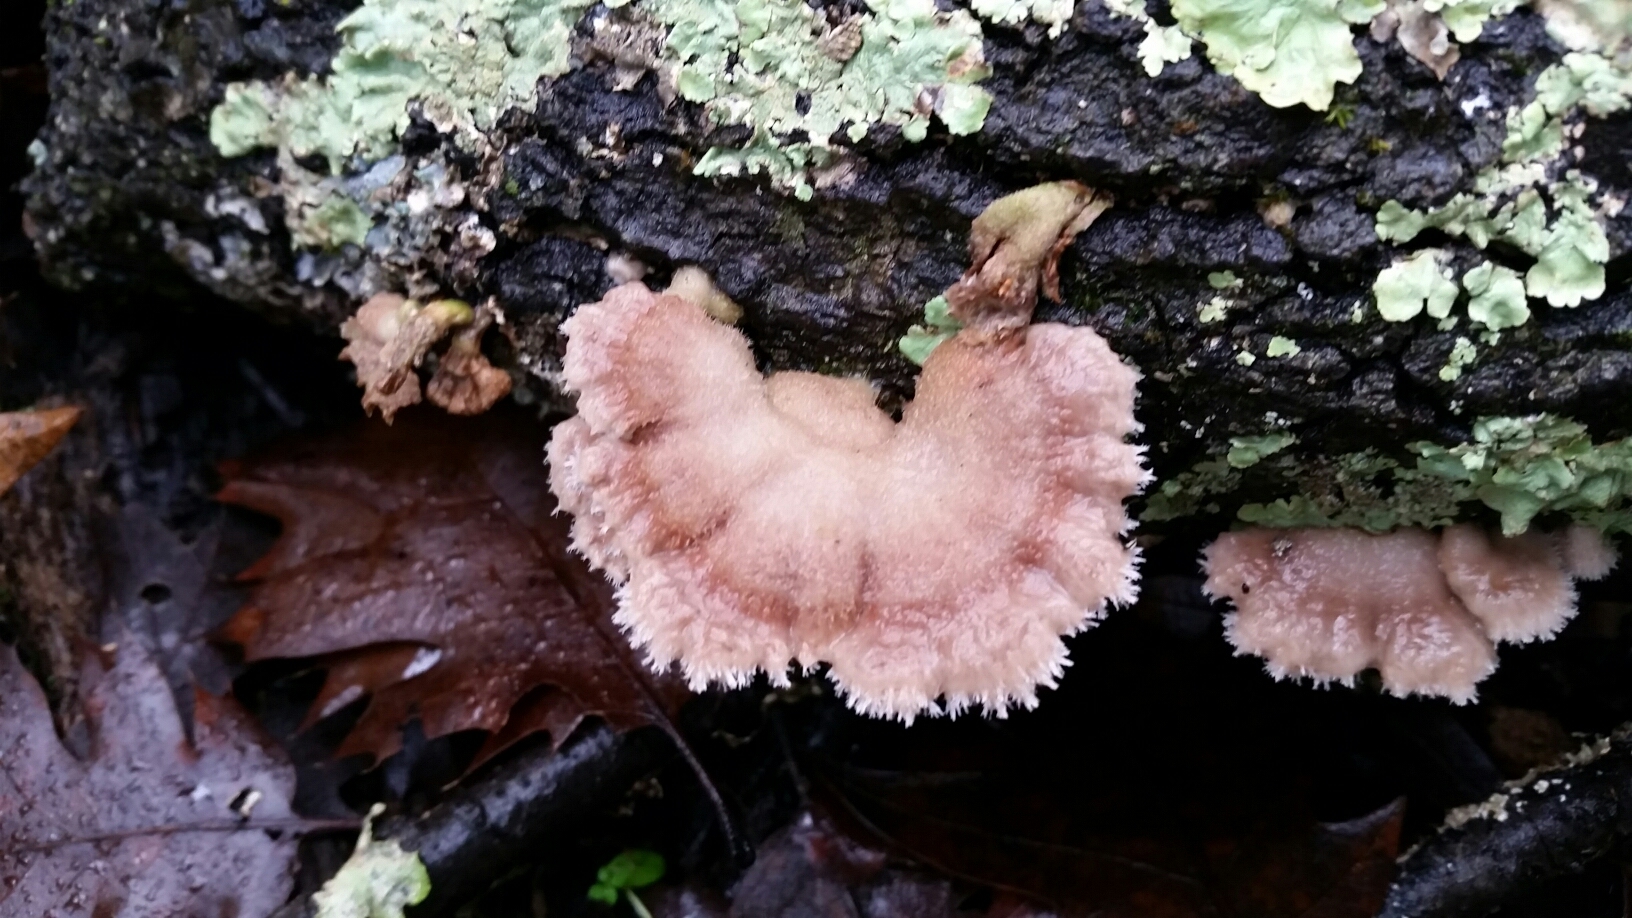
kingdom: Fungi
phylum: Basidiomycota
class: Agaricomycetes
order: Agaricales
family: Schizophyllaceae
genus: Schizophyllum
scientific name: Schizophyllum commune
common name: Common porecrust
